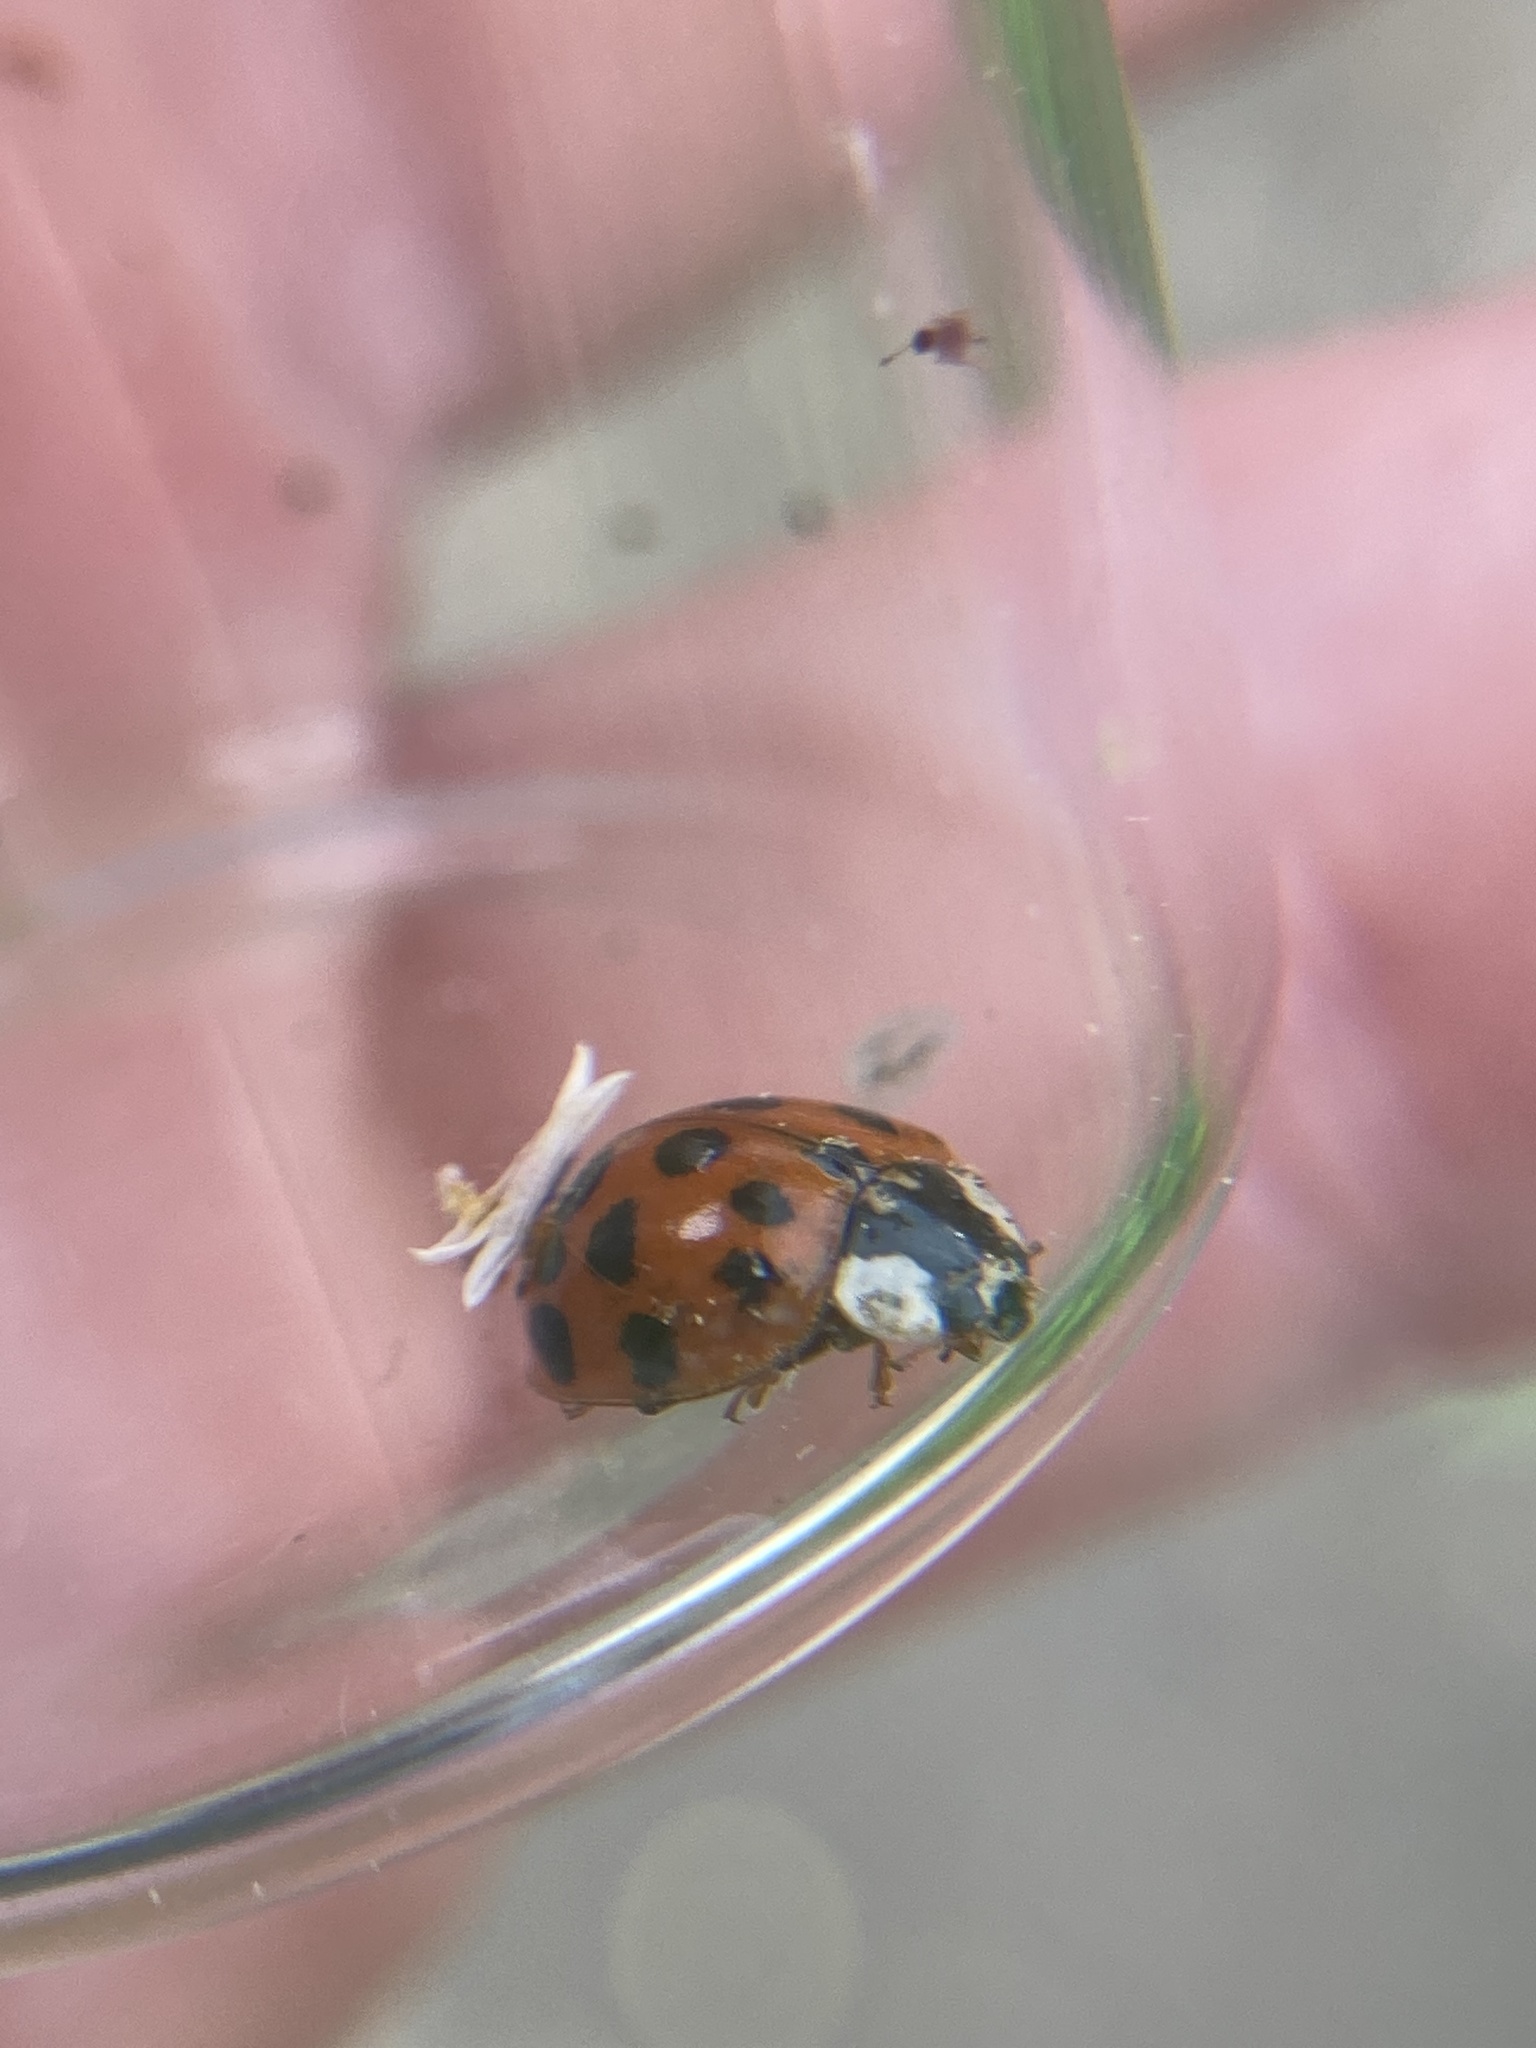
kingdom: Animalia
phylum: Arthropoda
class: Insecta
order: Coleoptera
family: Coccinellidae
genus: Harmonia
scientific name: Harmonia axyridis
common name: Harlequin ladybird
